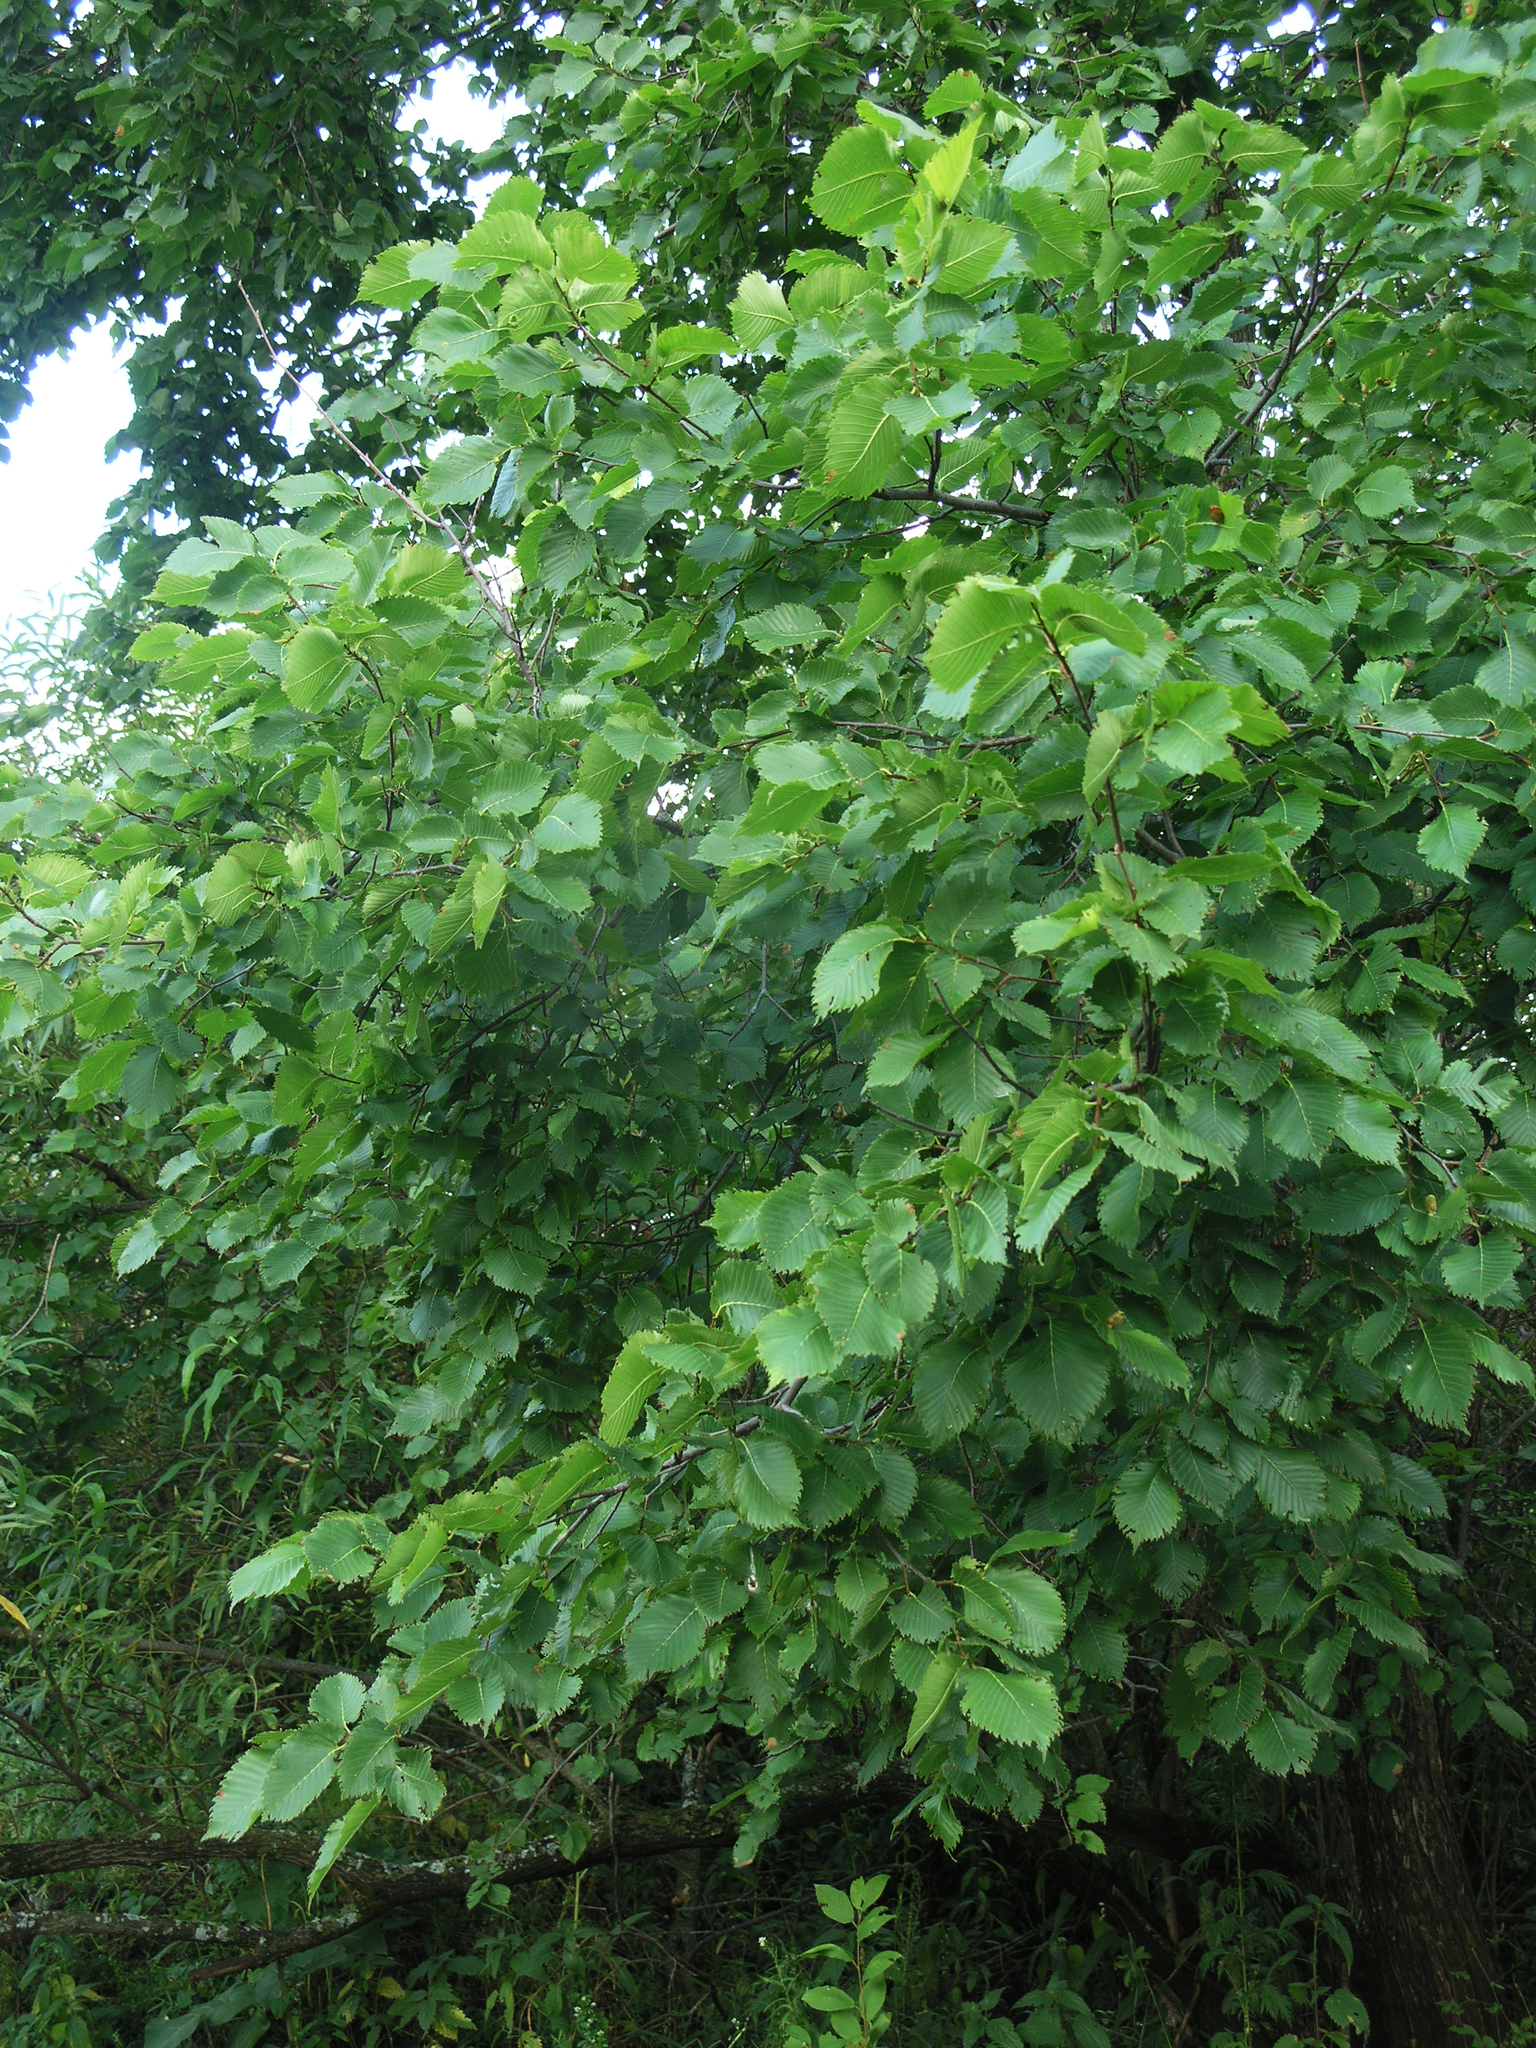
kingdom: Plantae
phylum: Tracheophyta
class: Magnoliopsida
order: Rosales
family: Ulmaceae
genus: Ulmus
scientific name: Ulmus laevis
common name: European white-elm
